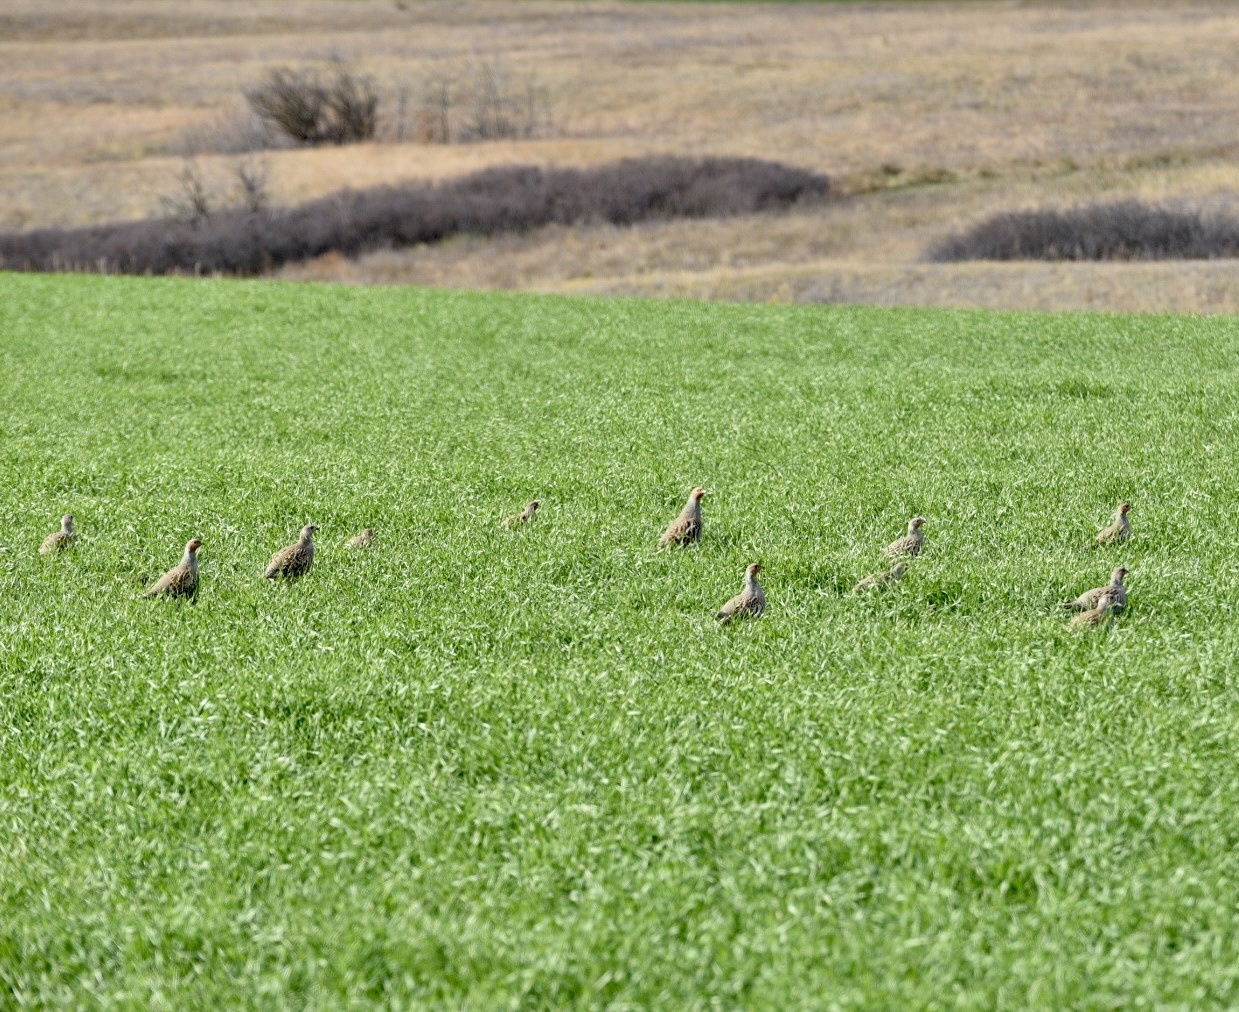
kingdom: Animalia
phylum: Chordata
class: Aves
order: Galliformes
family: Phasianidae
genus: Perdix
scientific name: Perdix perdix
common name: Grey partridge
